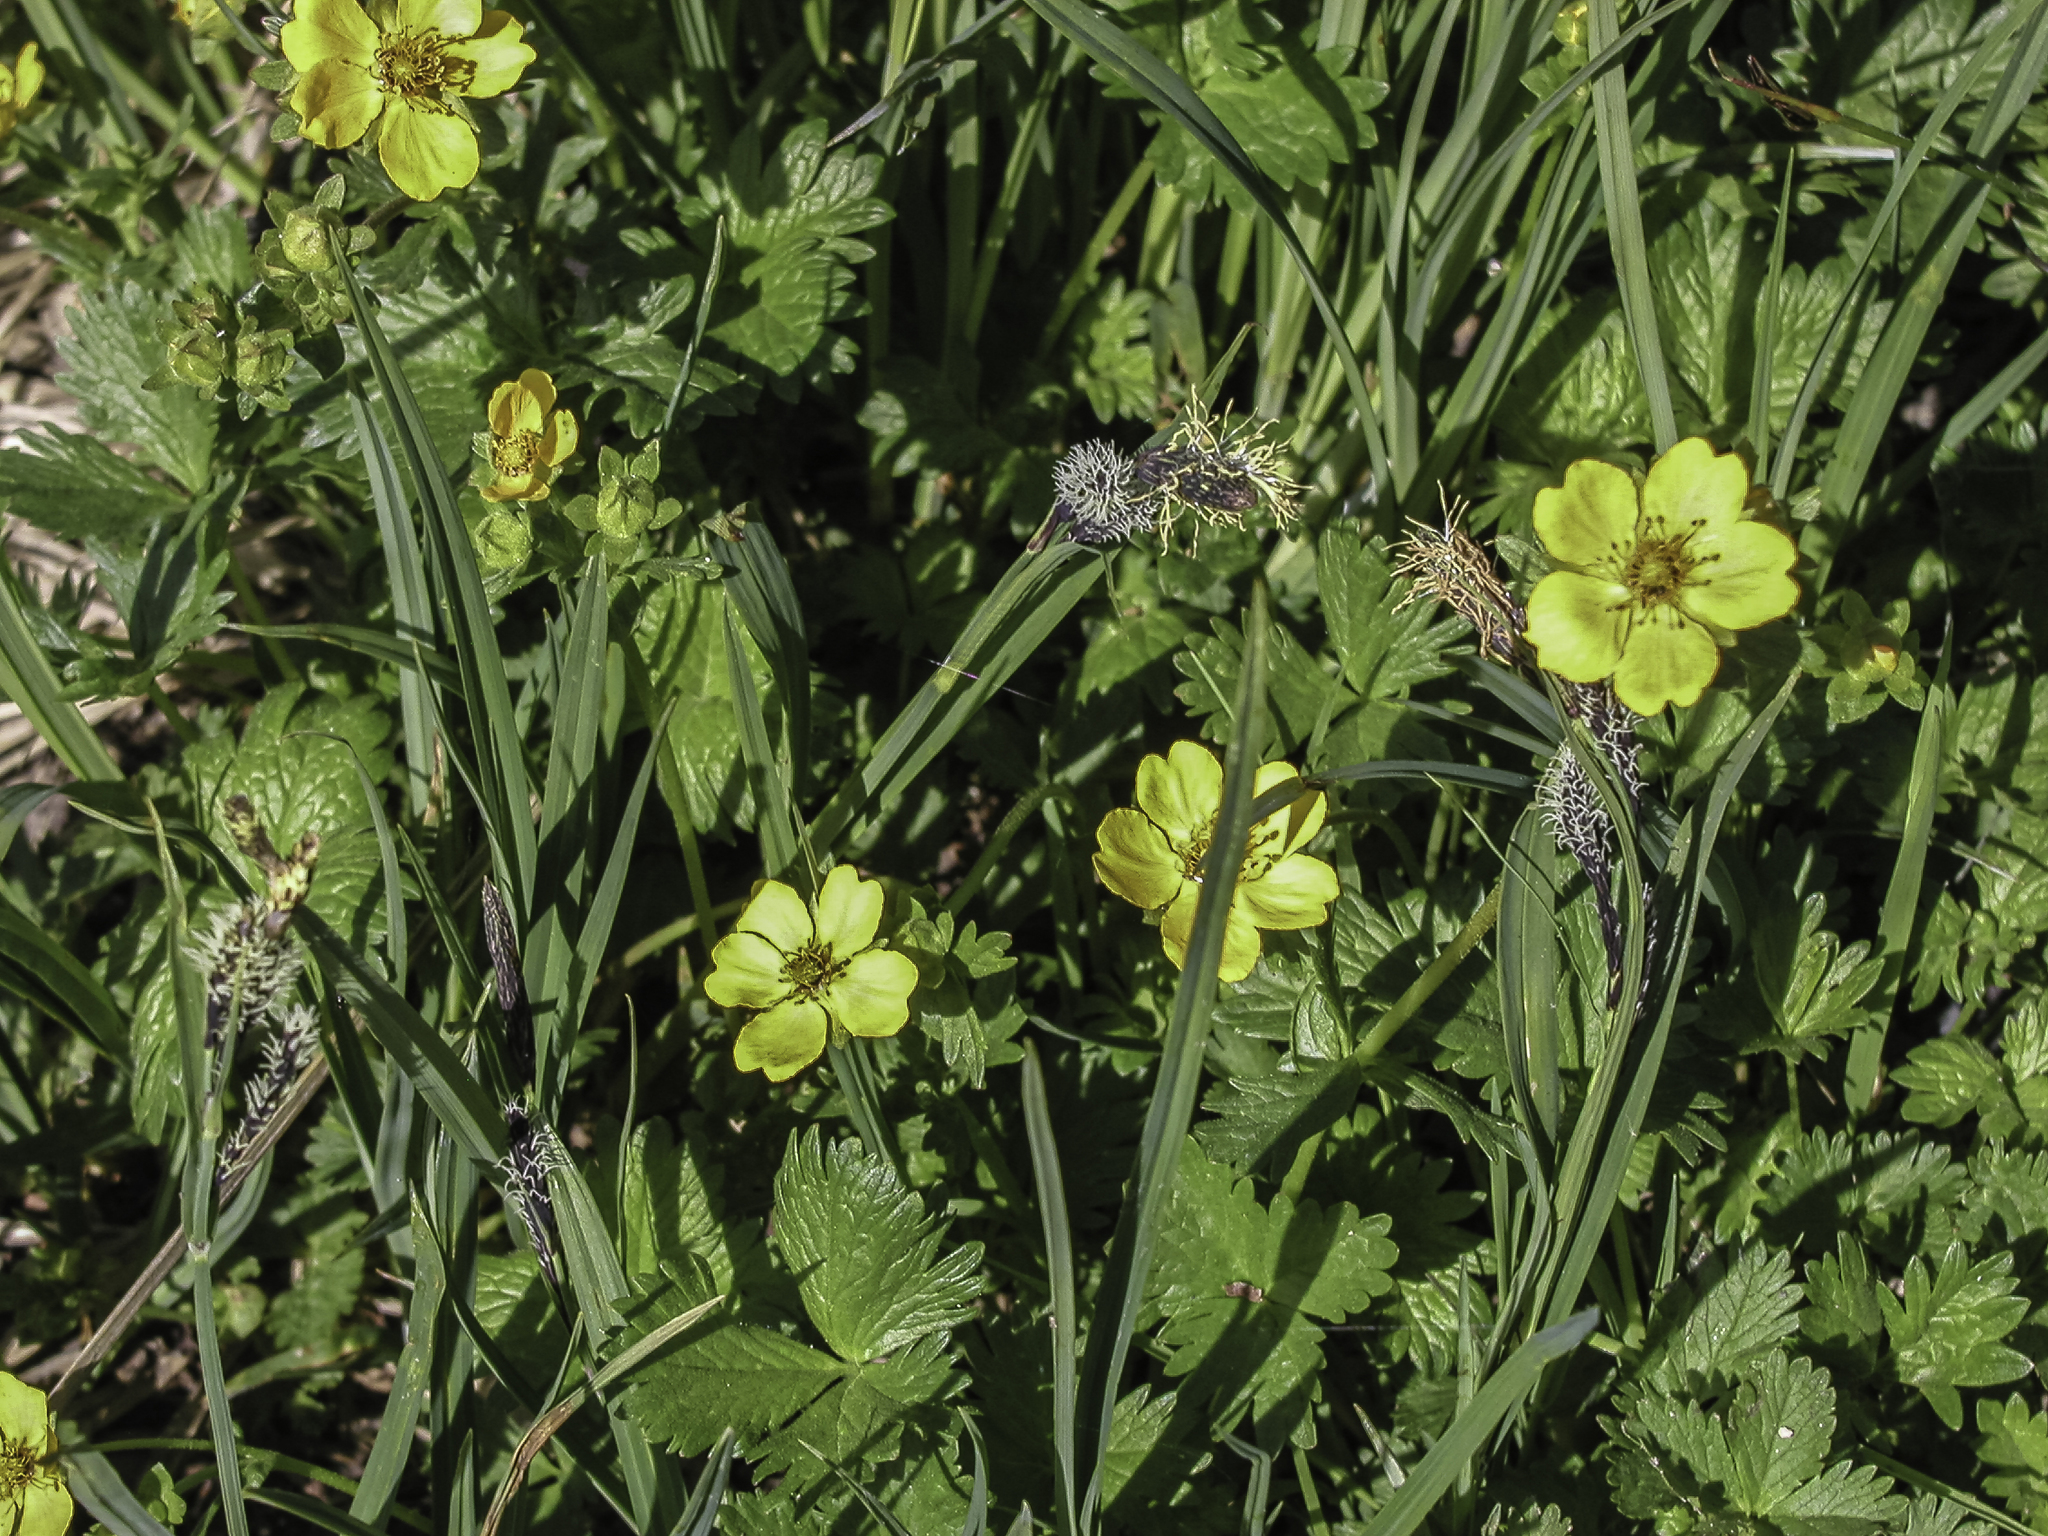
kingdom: Plantae
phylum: Tracheophyta
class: Magnoliopsida
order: Rosales
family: Rosaceae
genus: Potentilla
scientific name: Potentilla flabellifolia
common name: Mount rainier cinquefoil
